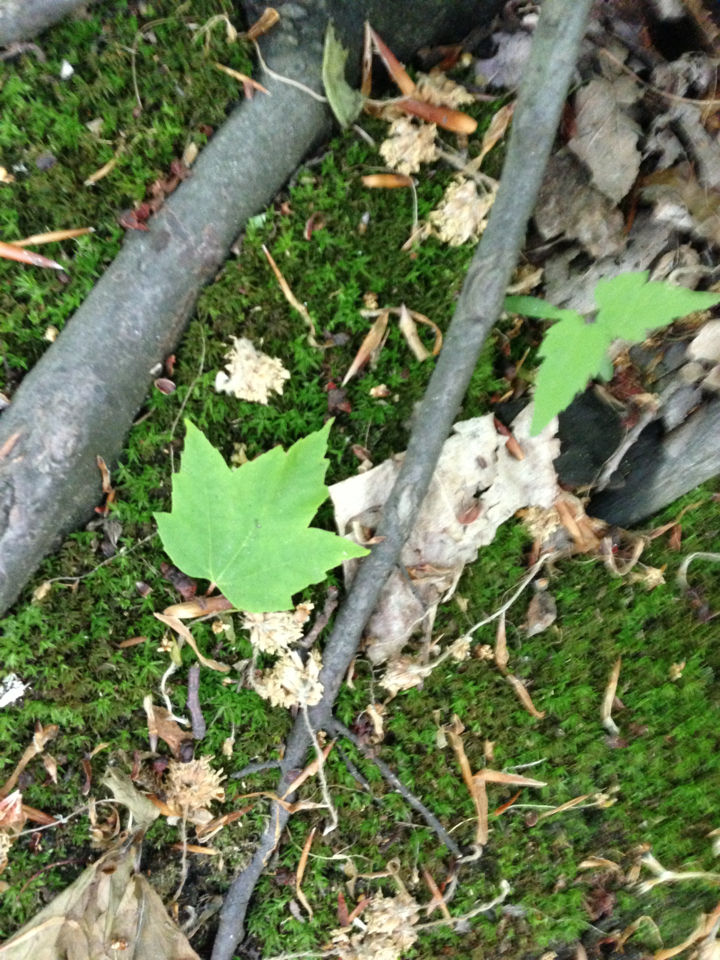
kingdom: Plantae
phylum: Tracheophyta
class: Magnoliopsida
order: Sapindales
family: Sapindaceae
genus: Acer
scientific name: Acer rubrum
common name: Red maple
